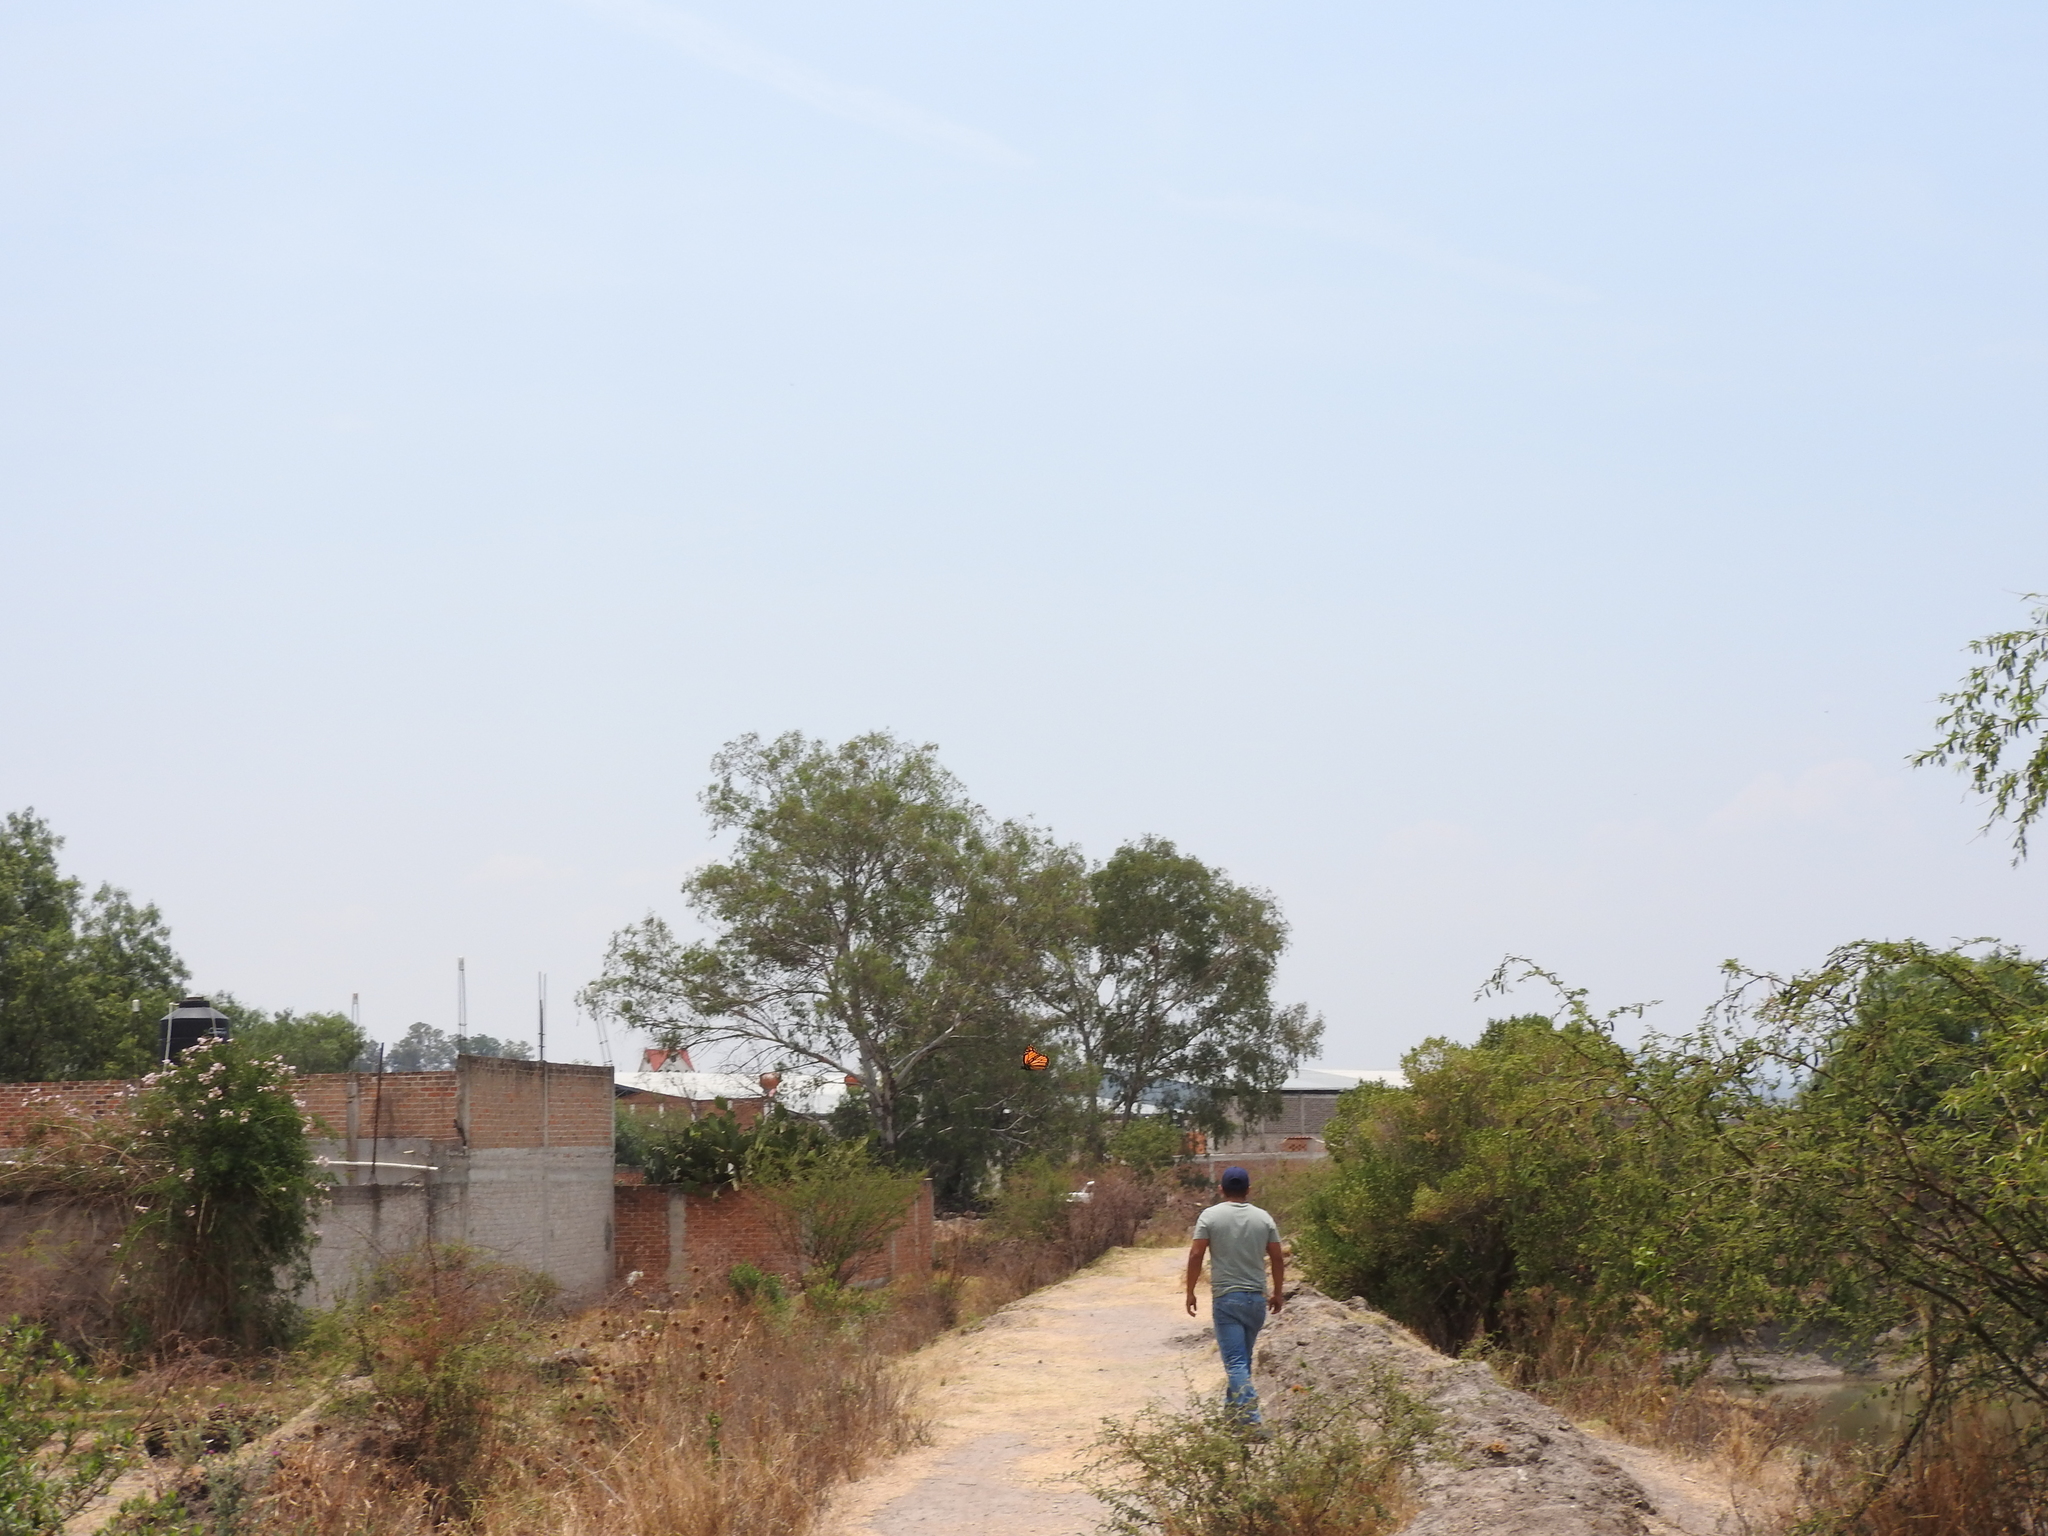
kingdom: Animalia
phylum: Arthropoda
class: Insecta
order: Lepidoptera
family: Nymphalidae
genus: Danaus
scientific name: Danaus plexippus
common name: Monarch
